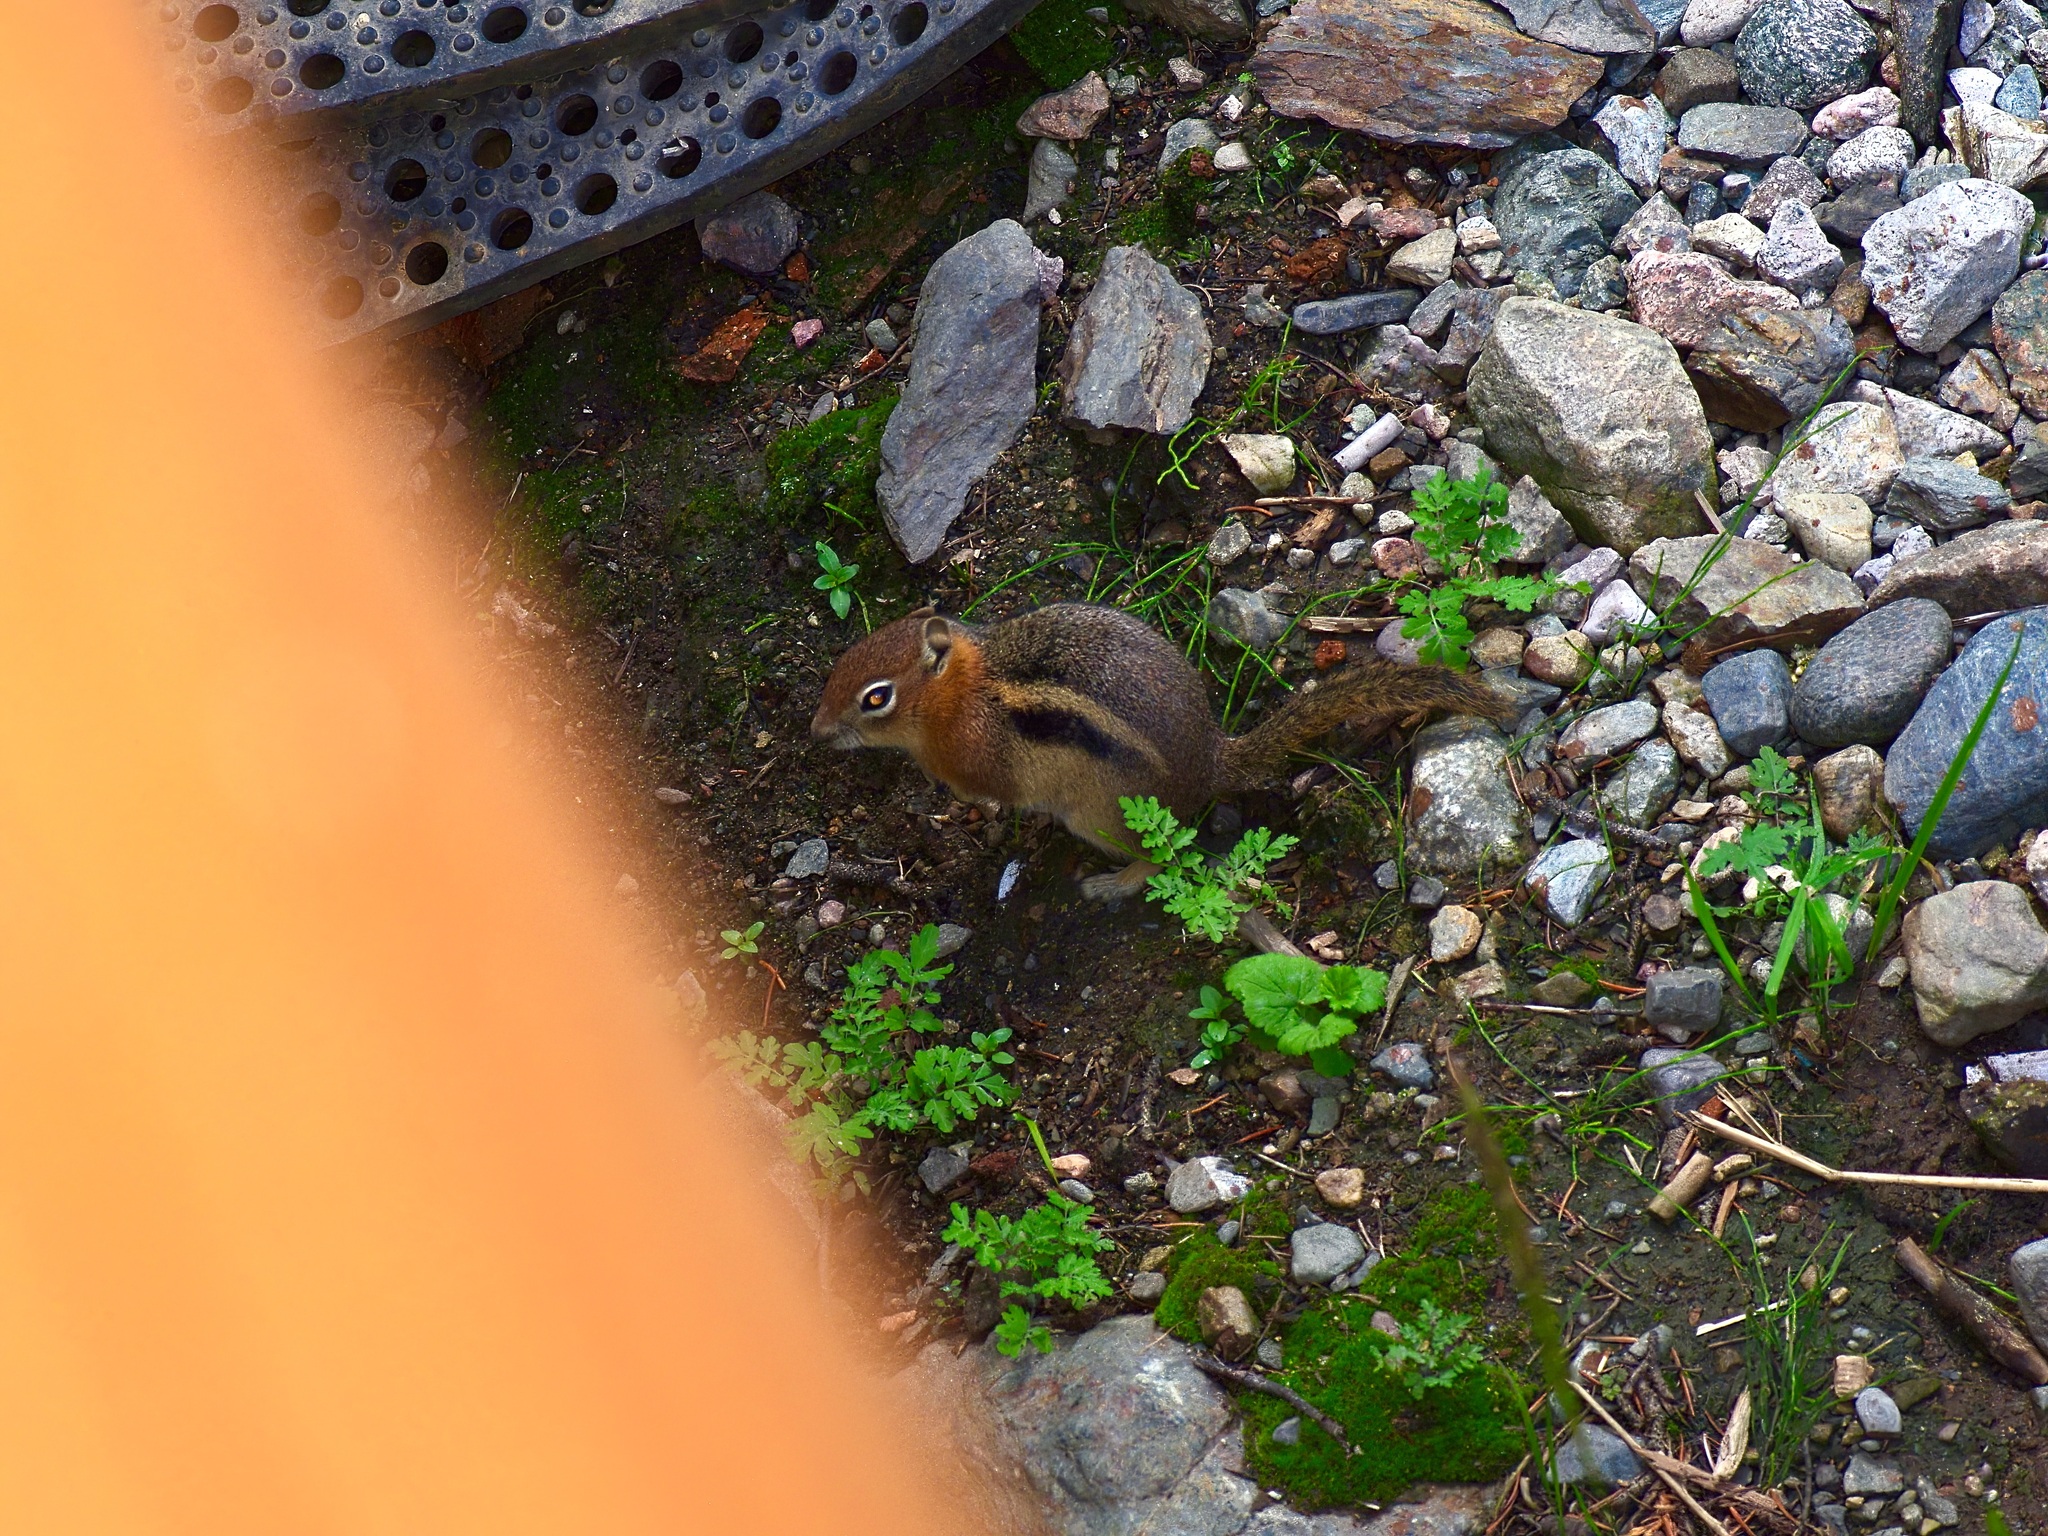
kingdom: Animalia
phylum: Chordata
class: Mammalia
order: Rodentia
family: Sciuridae
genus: Callospermophilus
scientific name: Callospermophilus lateralis
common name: Golden-mantled ground squirrel
